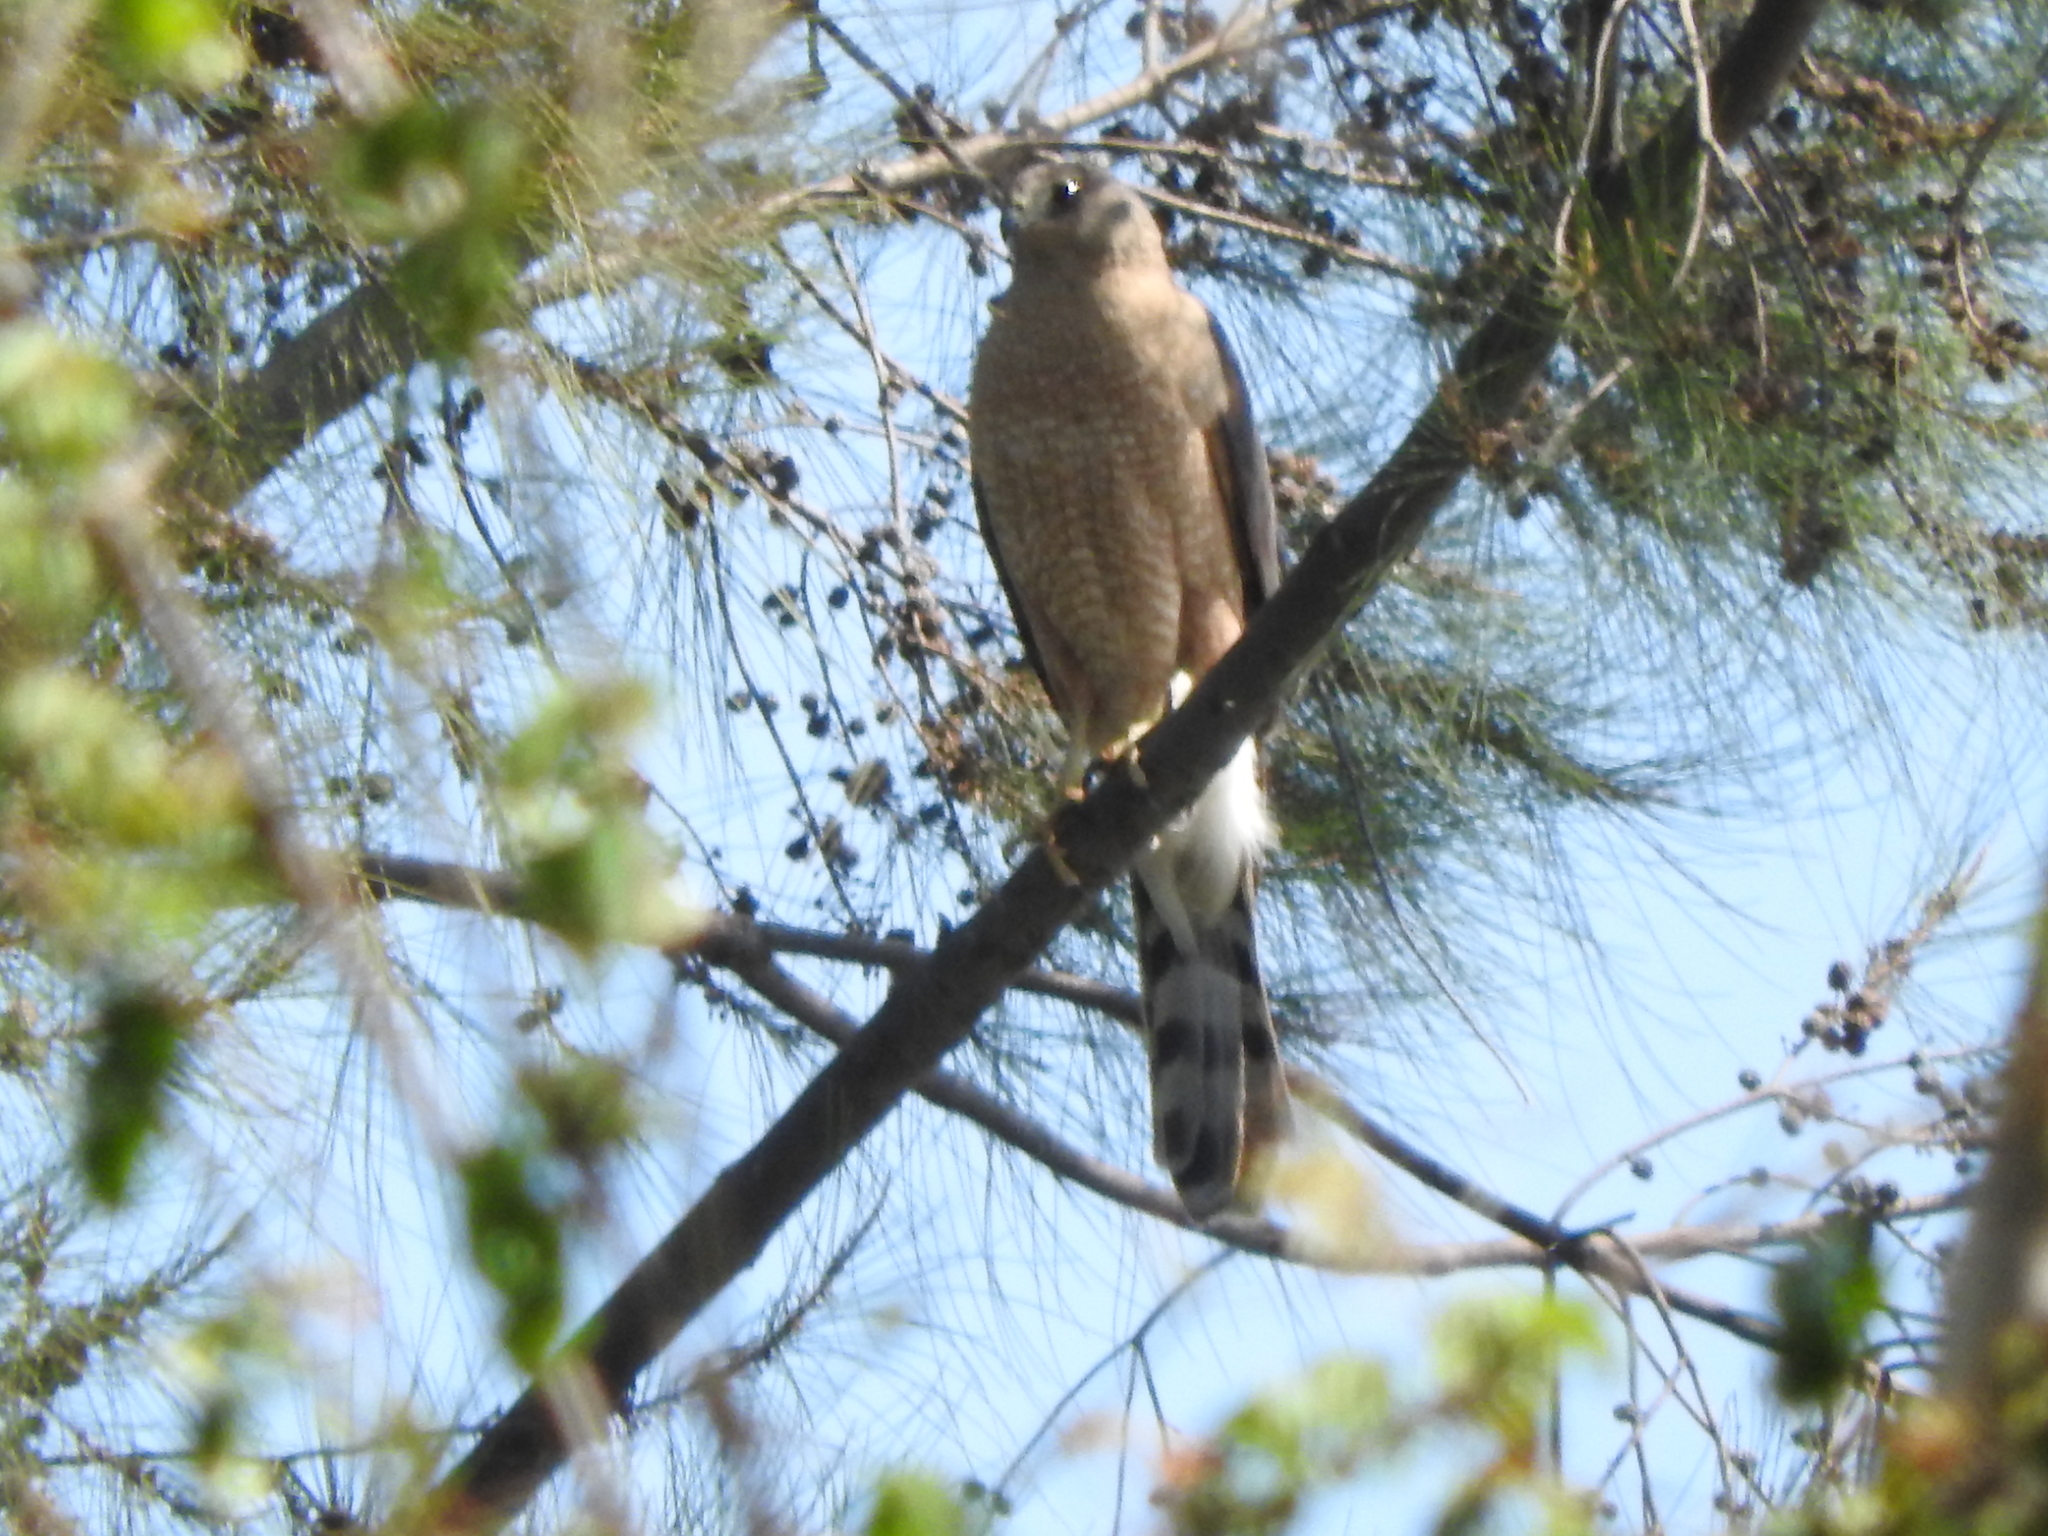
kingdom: Animalia
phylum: Chordata
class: Aves
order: Accipitriformes
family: Accipitridae
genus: Accipiter
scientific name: Accipiter cooperii
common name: Cooper's hawk
